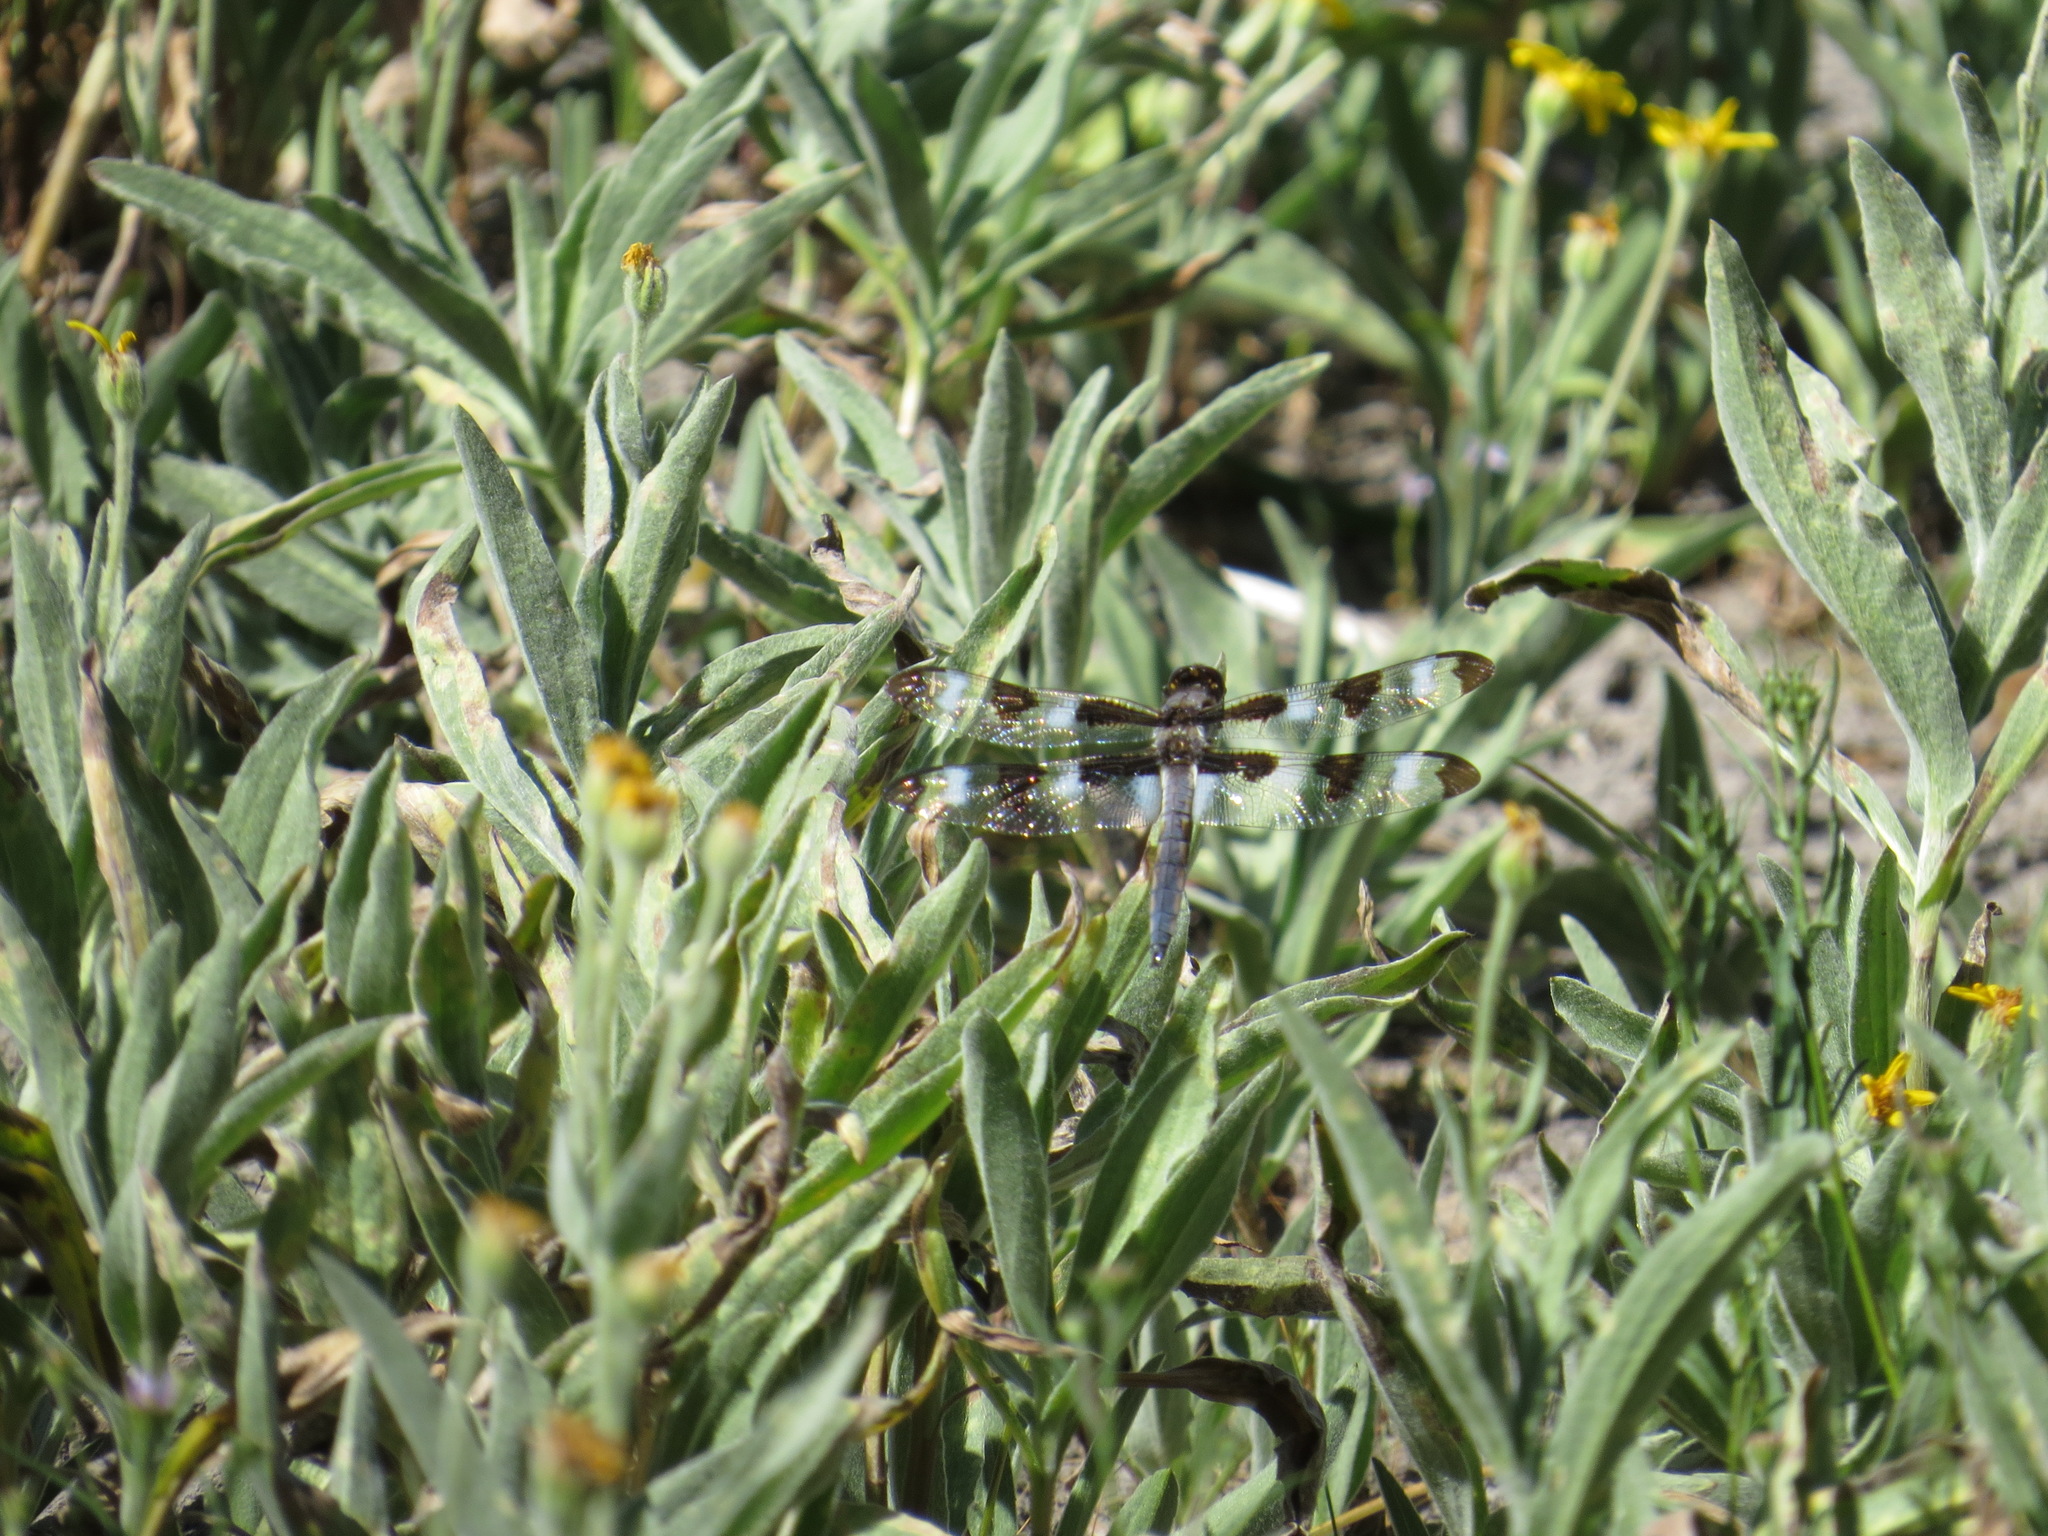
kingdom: Animalia
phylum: Arthropoda
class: Insecta
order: Odonata
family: Libellulidae
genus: Libellula
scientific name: Libellula pulchella
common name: Twelve-spotted skimmer
